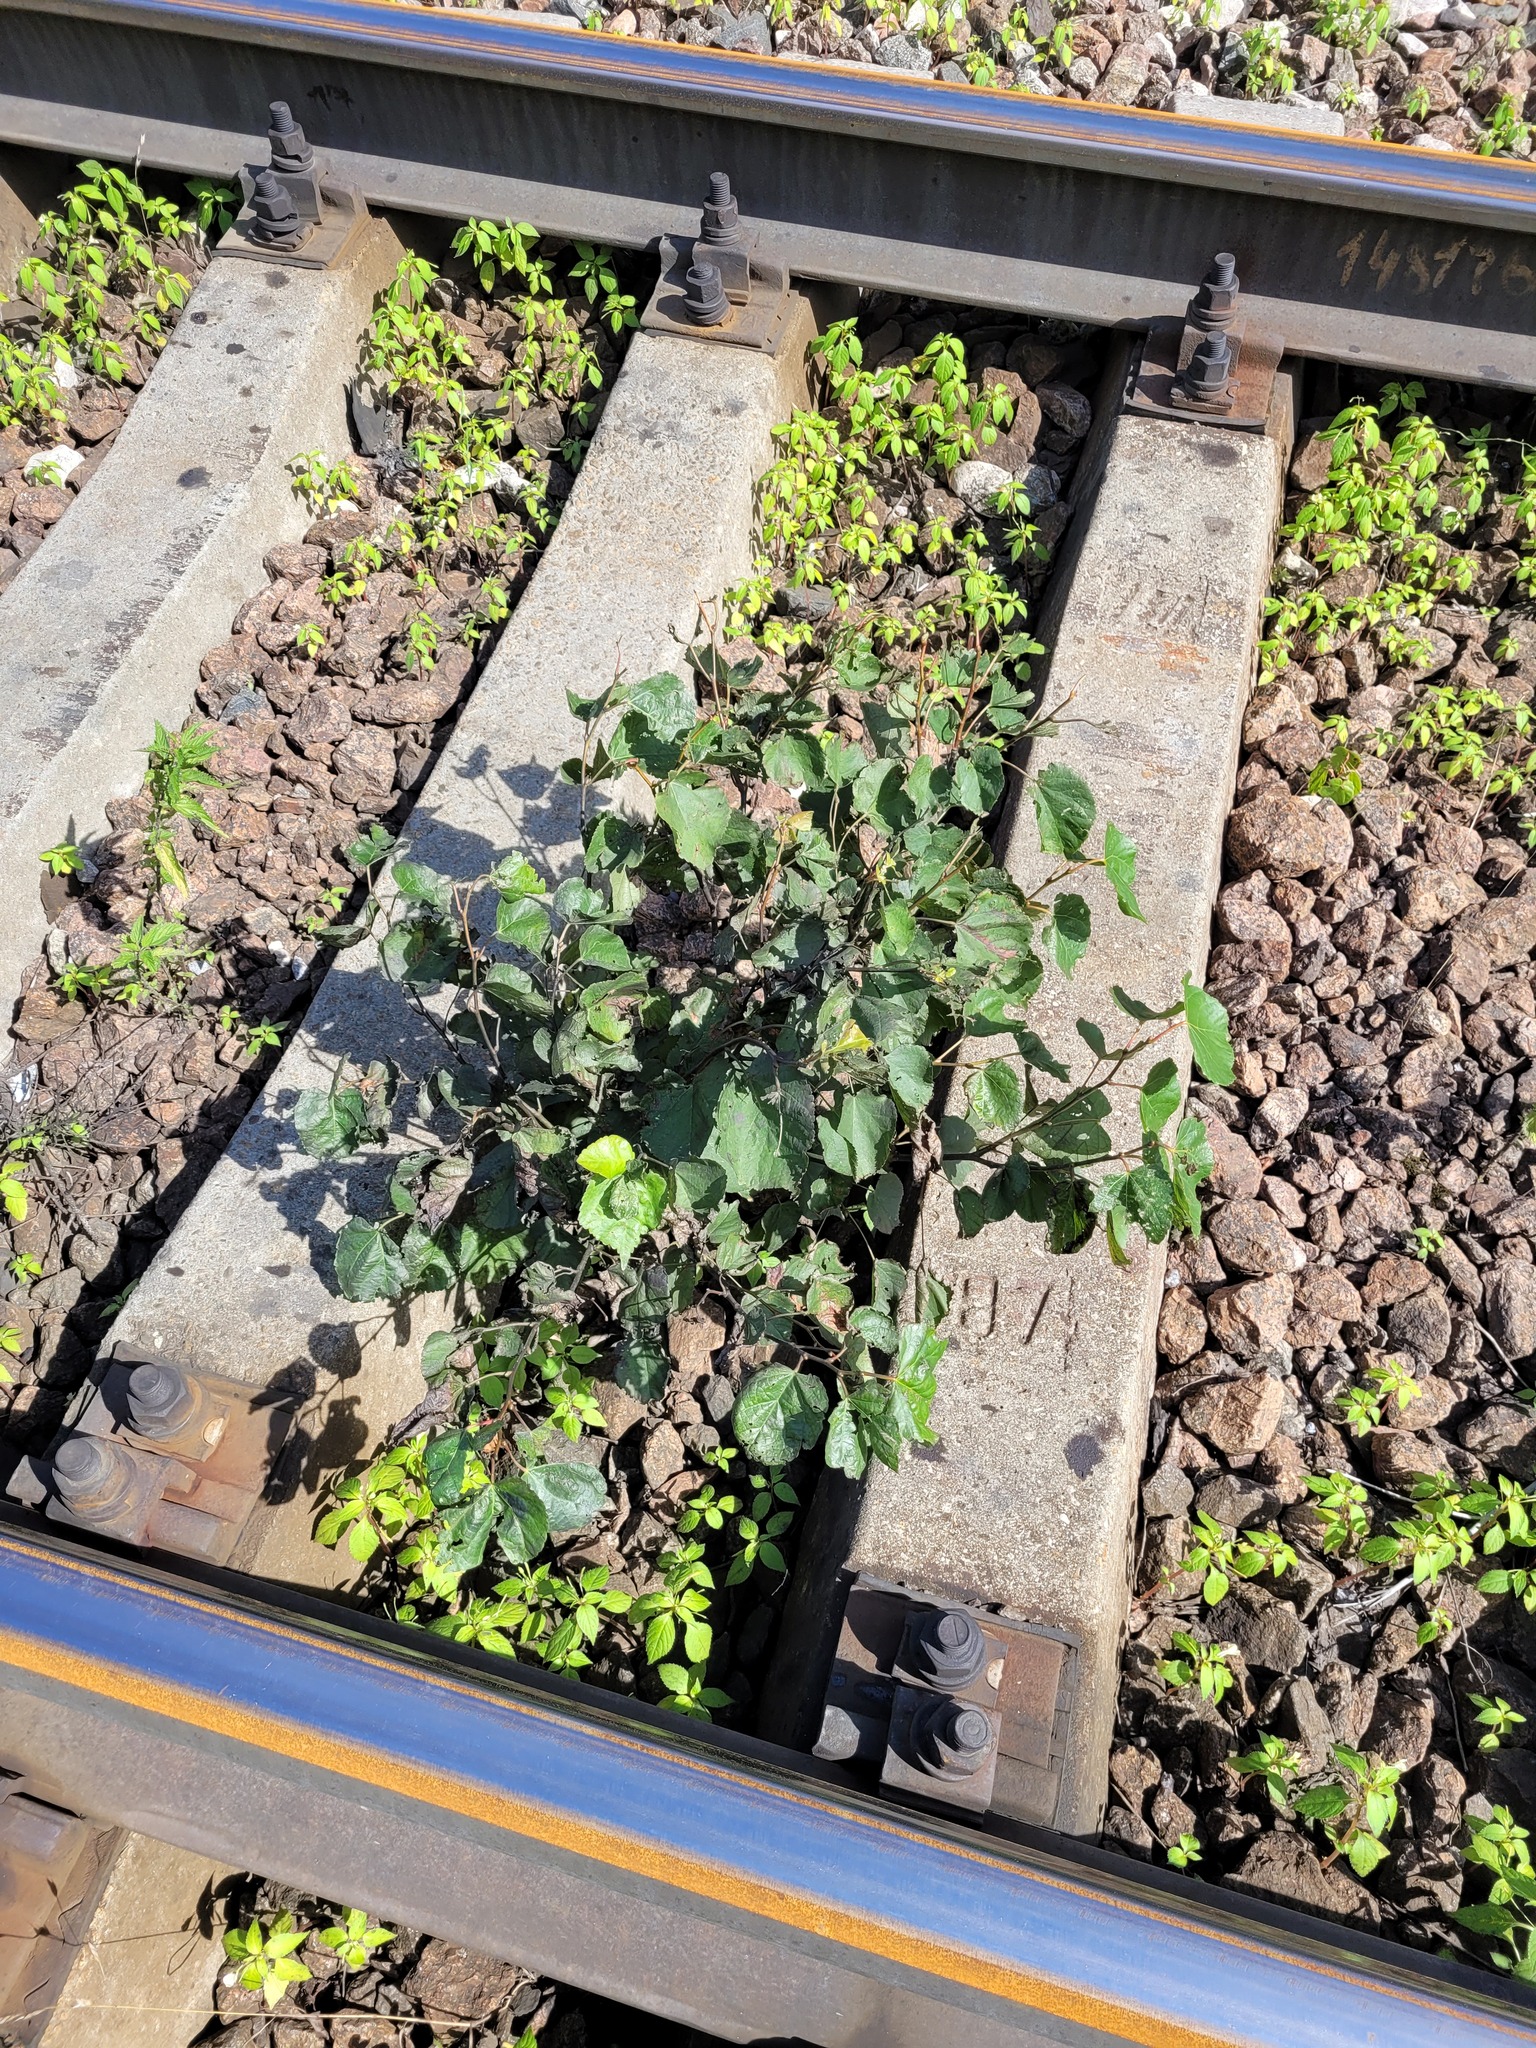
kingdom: Plantae
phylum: Tracheophyta
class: Magnoliopsida
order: Malvales
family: Malvaceae
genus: Tilia
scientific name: Tilia cordata
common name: Small-leaved lime
